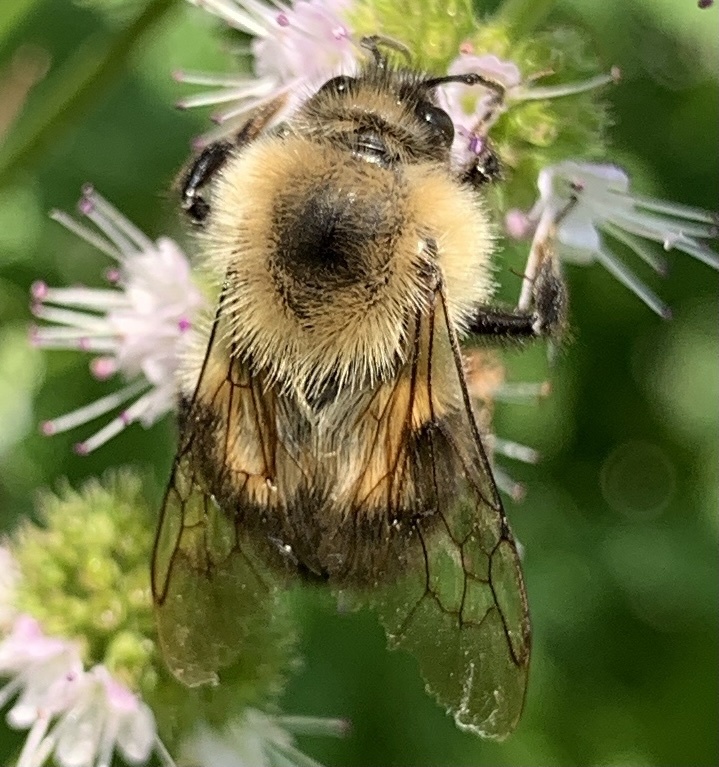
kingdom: Animalia
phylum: Arthropoda
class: Insecta
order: Hymenoptera
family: Apidae
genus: Bombus
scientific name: Bombus bimaculatus
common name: Two-spotted bumble bee
